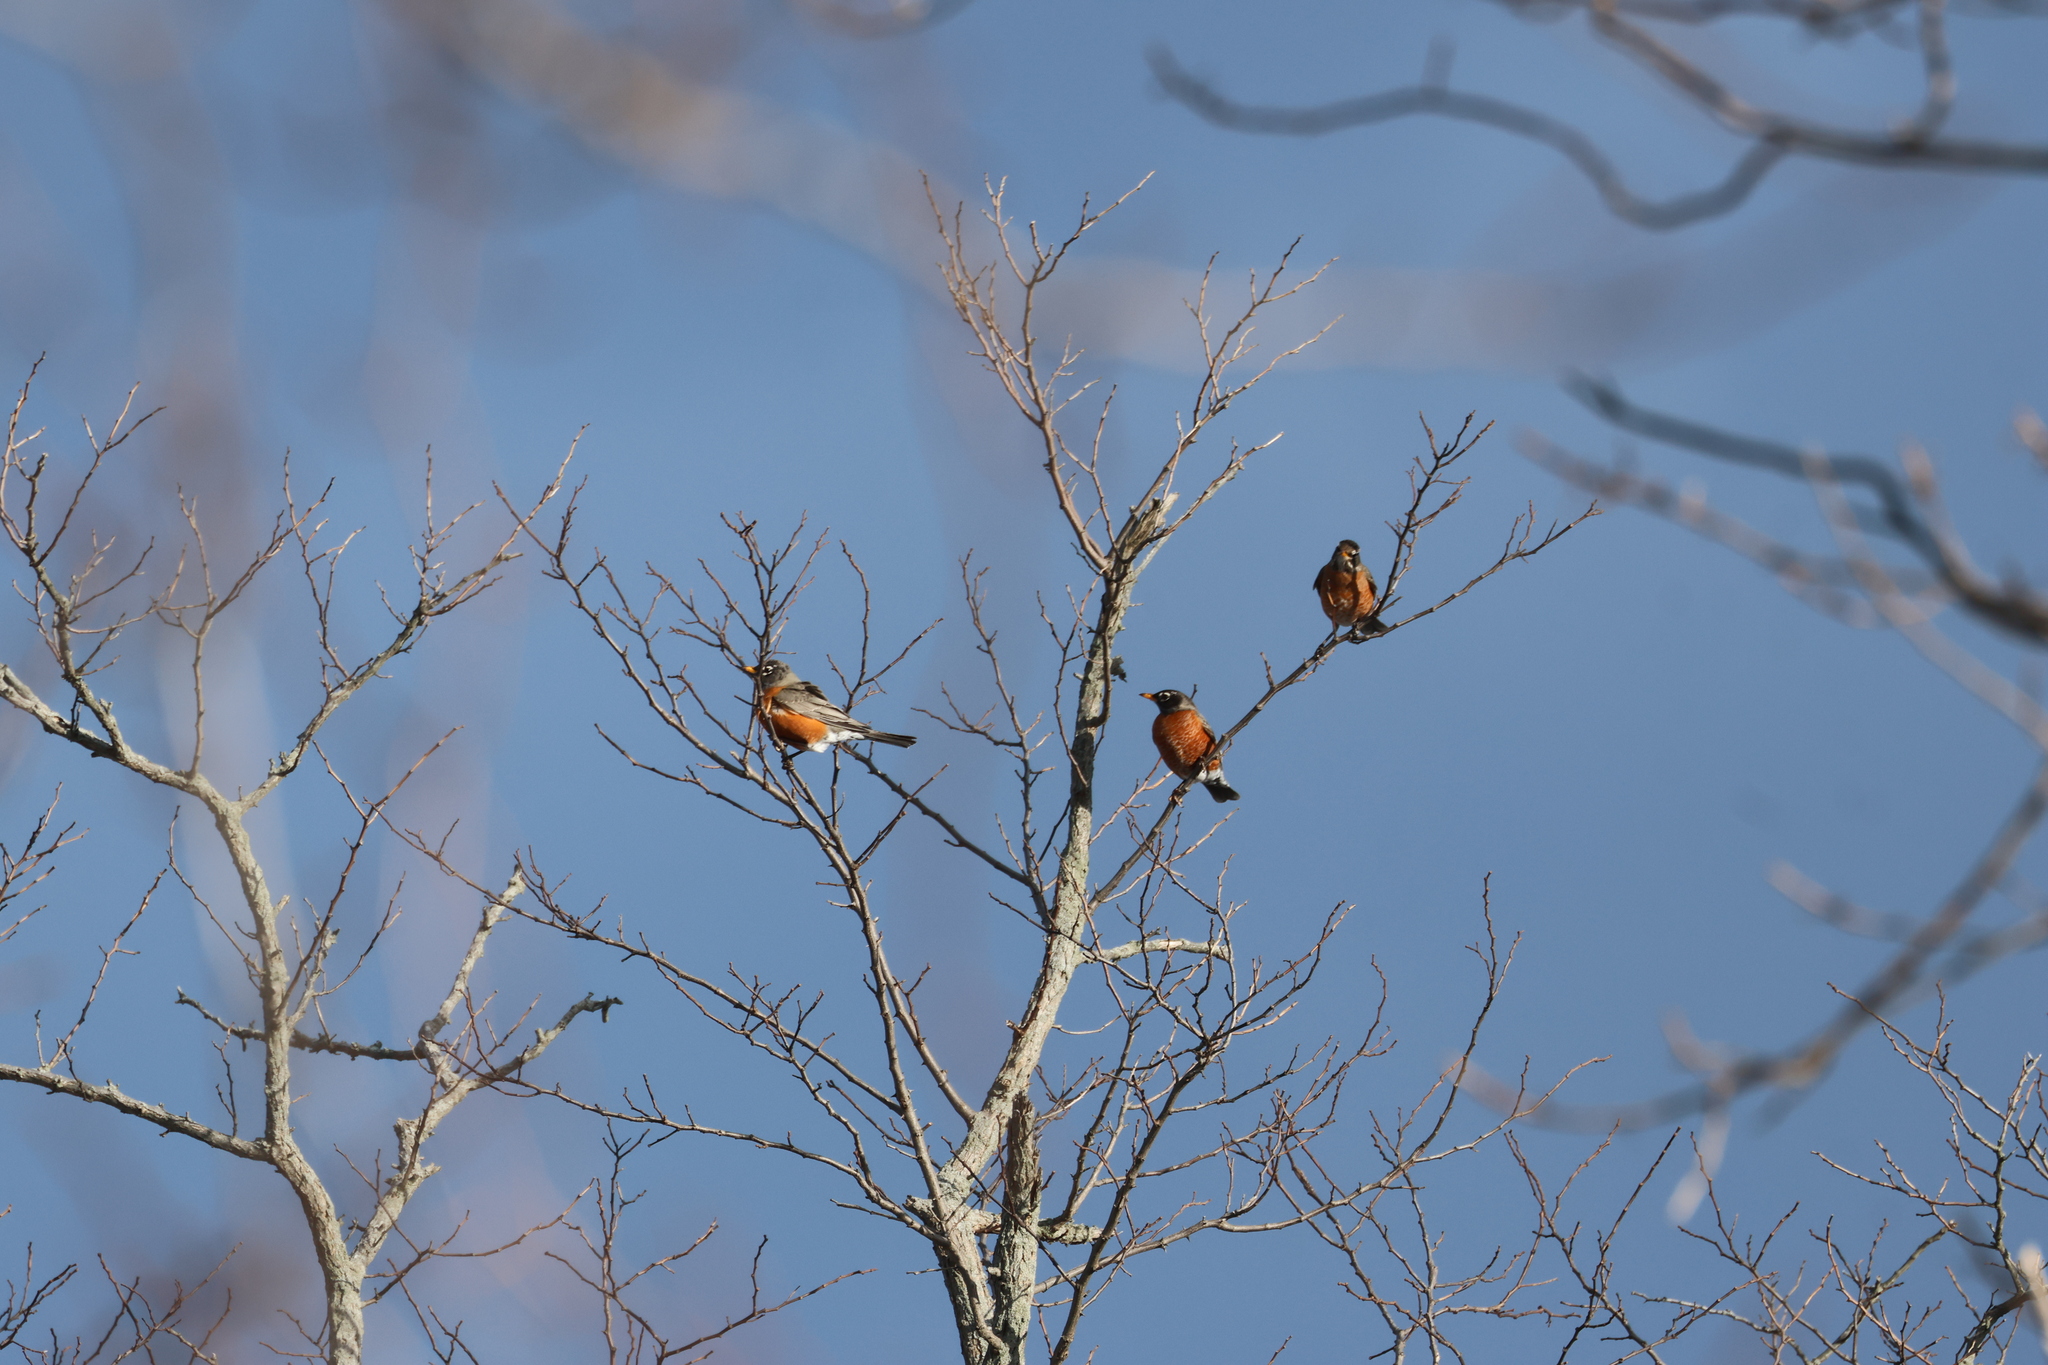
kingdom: Animalia
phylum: Chordata
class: Aves
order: Passeriformes
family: Turdidae
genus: Turdus
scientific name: Turdus migratorius
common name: American robin
